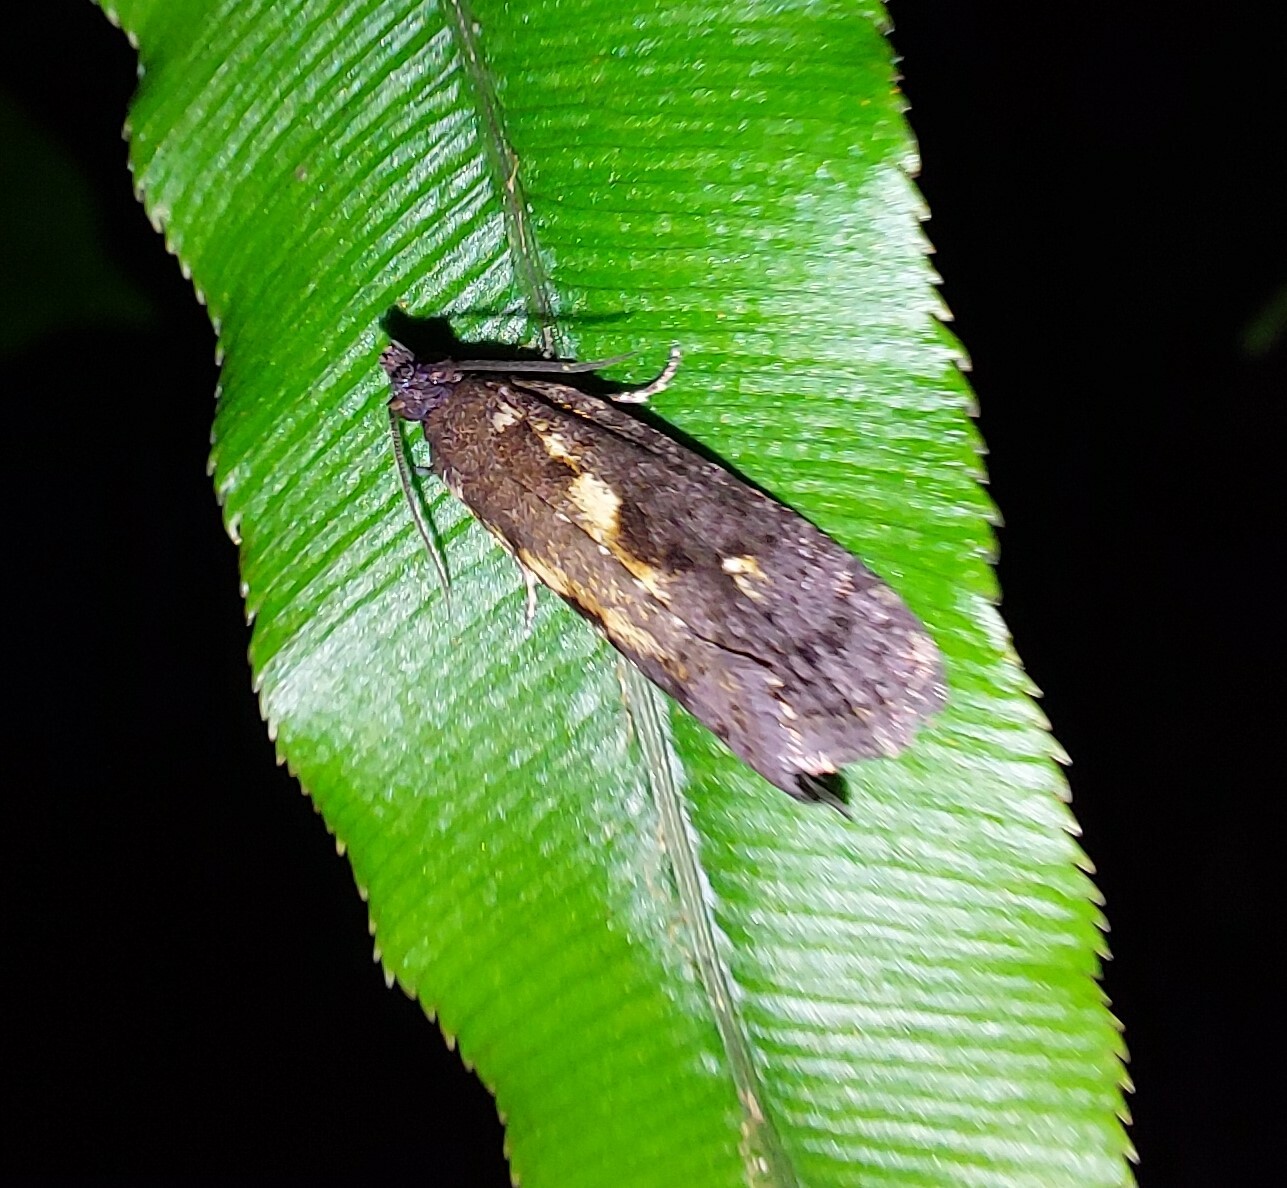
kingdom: Animalia
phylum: Arthropoda
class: Insecta
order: Lepidoptera
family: Tortricidae
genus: Cryptaspasma
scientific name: Cryptaspasma querula
